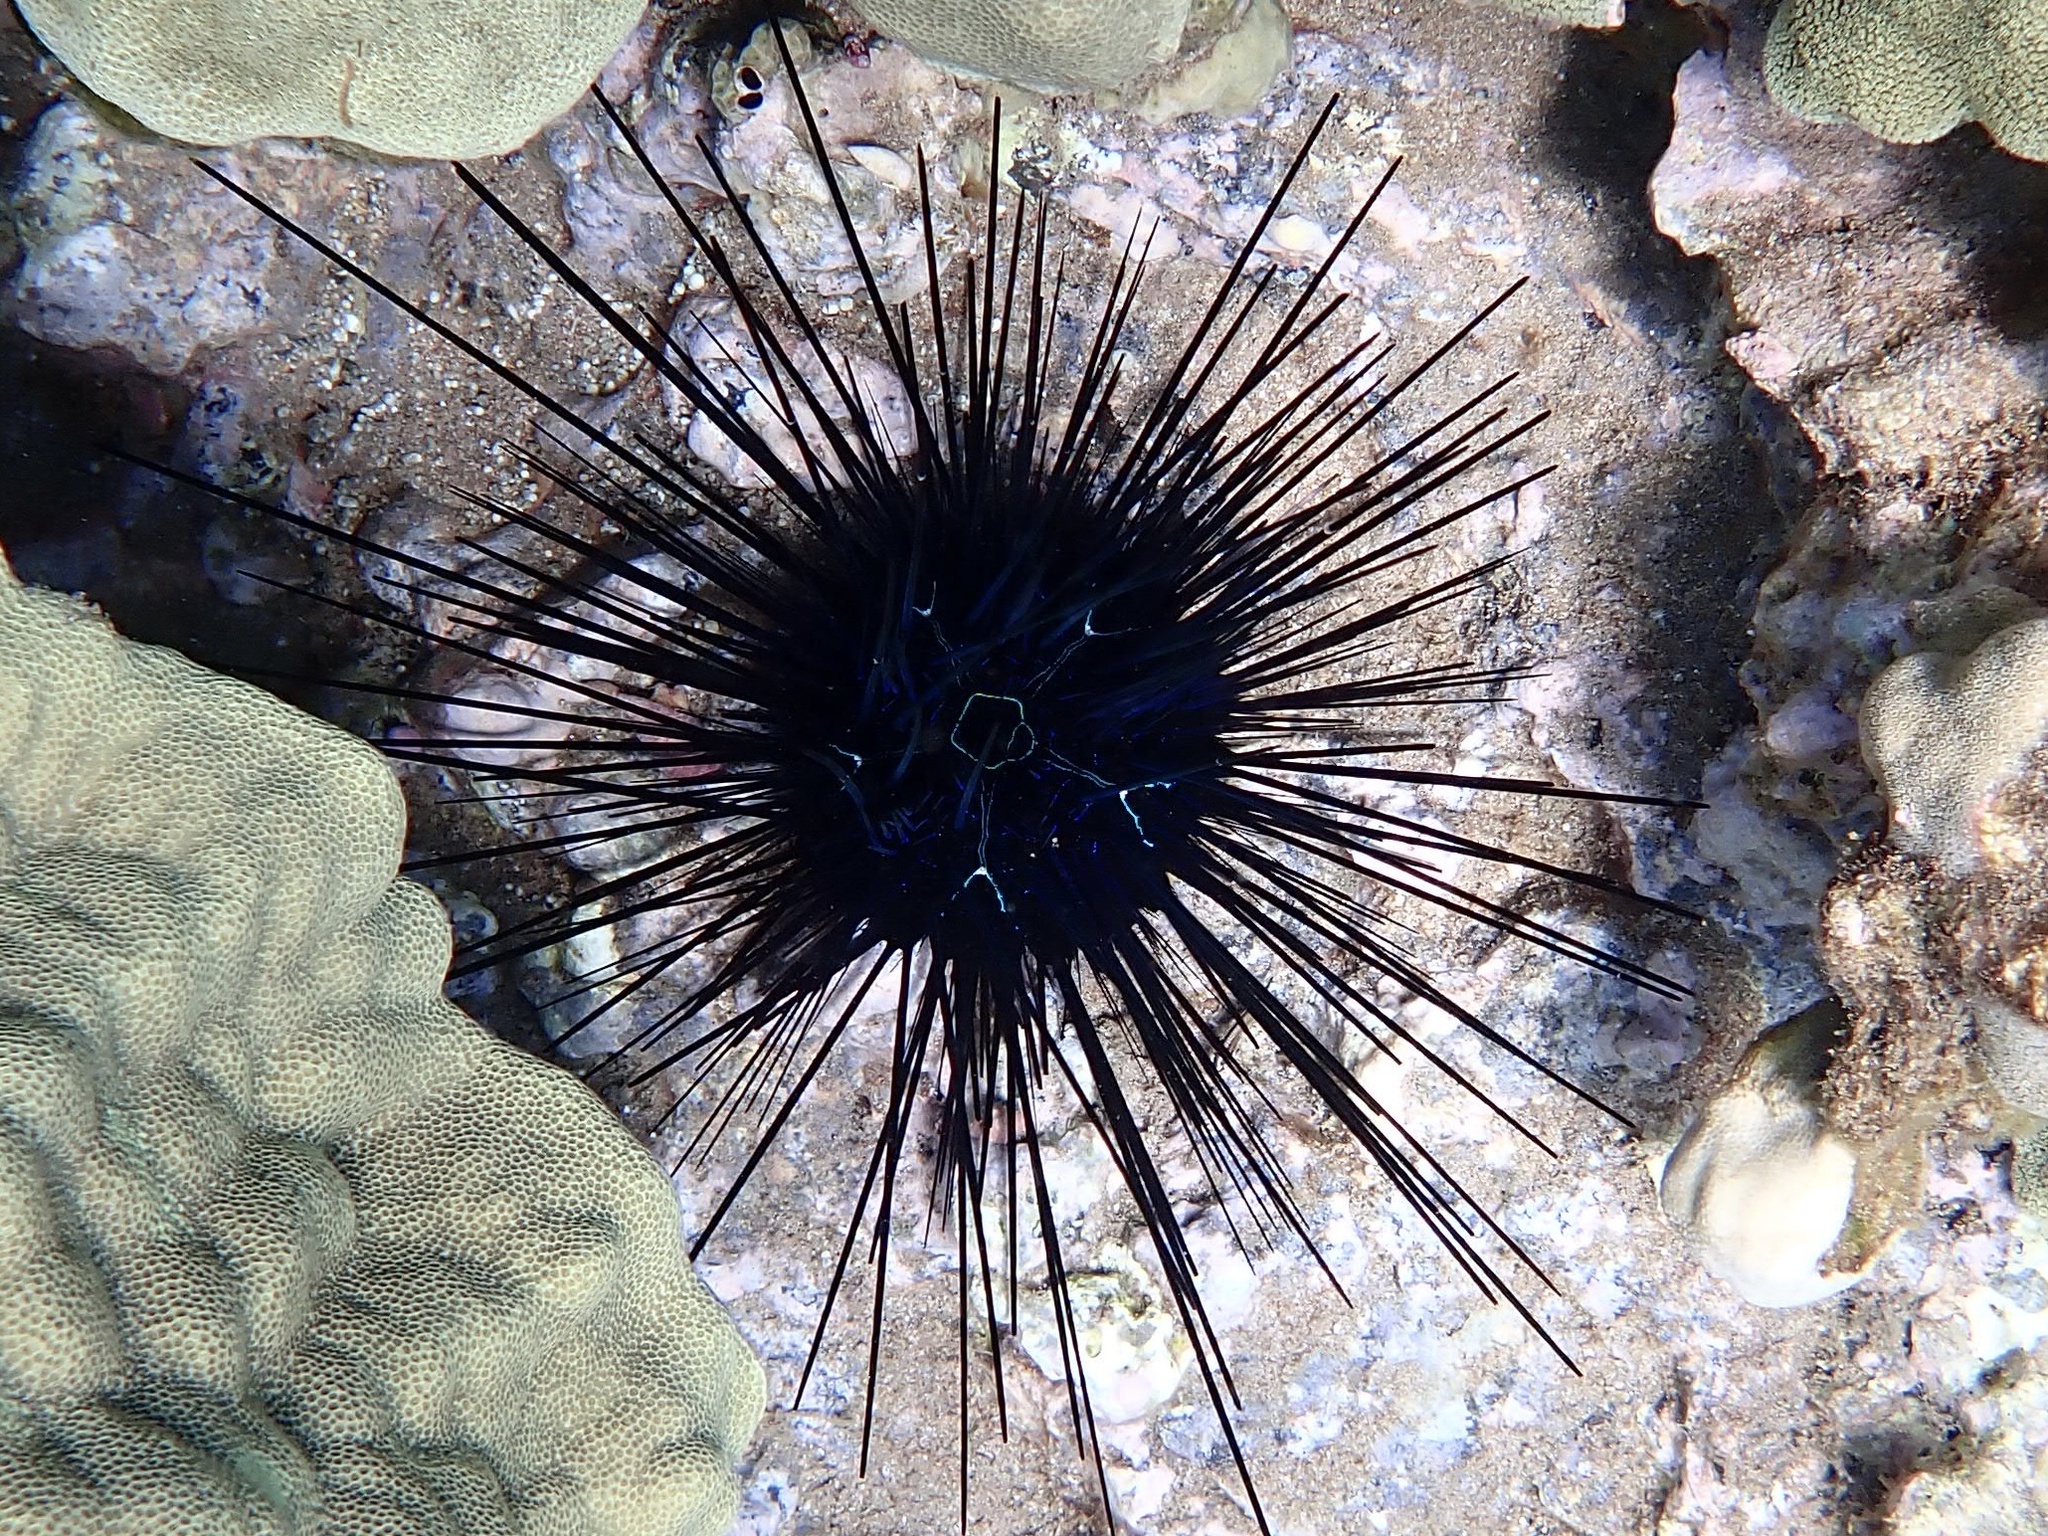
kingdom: Animalia
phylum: Echinodermata
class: Echinoidea
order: Diadematoida
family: Diadematidae
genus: Diadema
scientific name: Diadema savignyi
